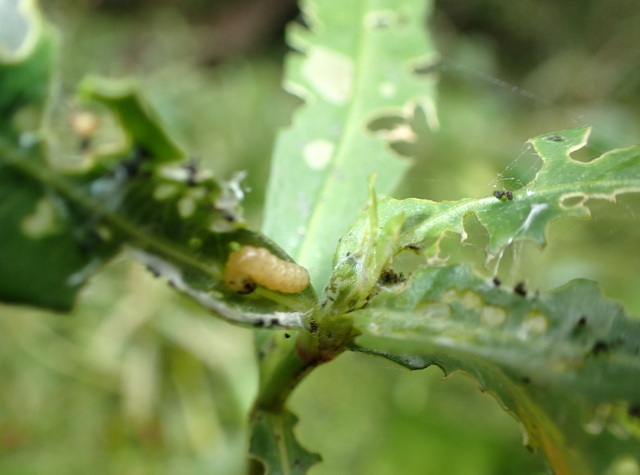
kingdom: Animalia
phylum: Arthropoda
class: Insecta
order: Coleoptera
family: Chrysomelidae
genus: Agasicles
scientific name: Agasicles hygrophila
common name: Alligatorweed flea beetle
